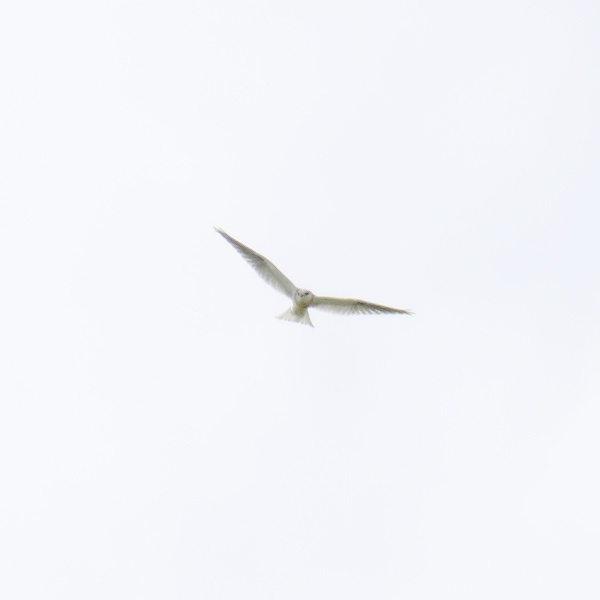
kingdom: Animalia
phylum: Chordata
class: Aves
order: Accipitriformes
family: Accipitridae
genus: Elanus
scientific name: Elanus axillaris
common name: Black-shouldered kite
